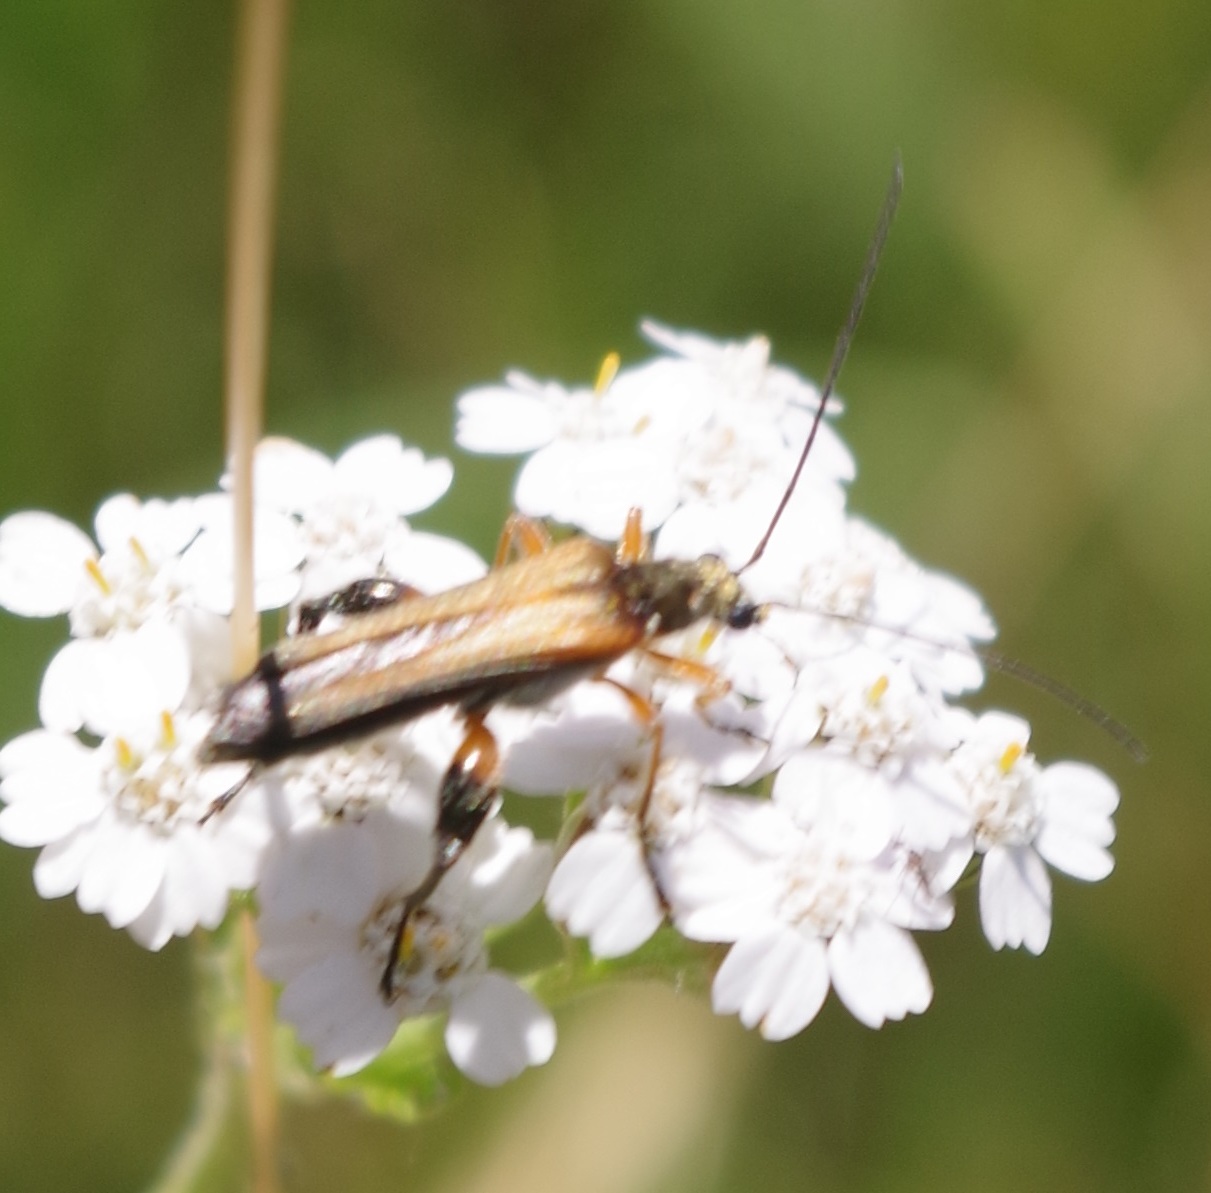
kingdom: Animalia
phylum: Arthropoda
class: Insecta
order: Coleoptera
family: Oedemeridae
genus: Oedemera
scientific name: Oedemera podagrariae
